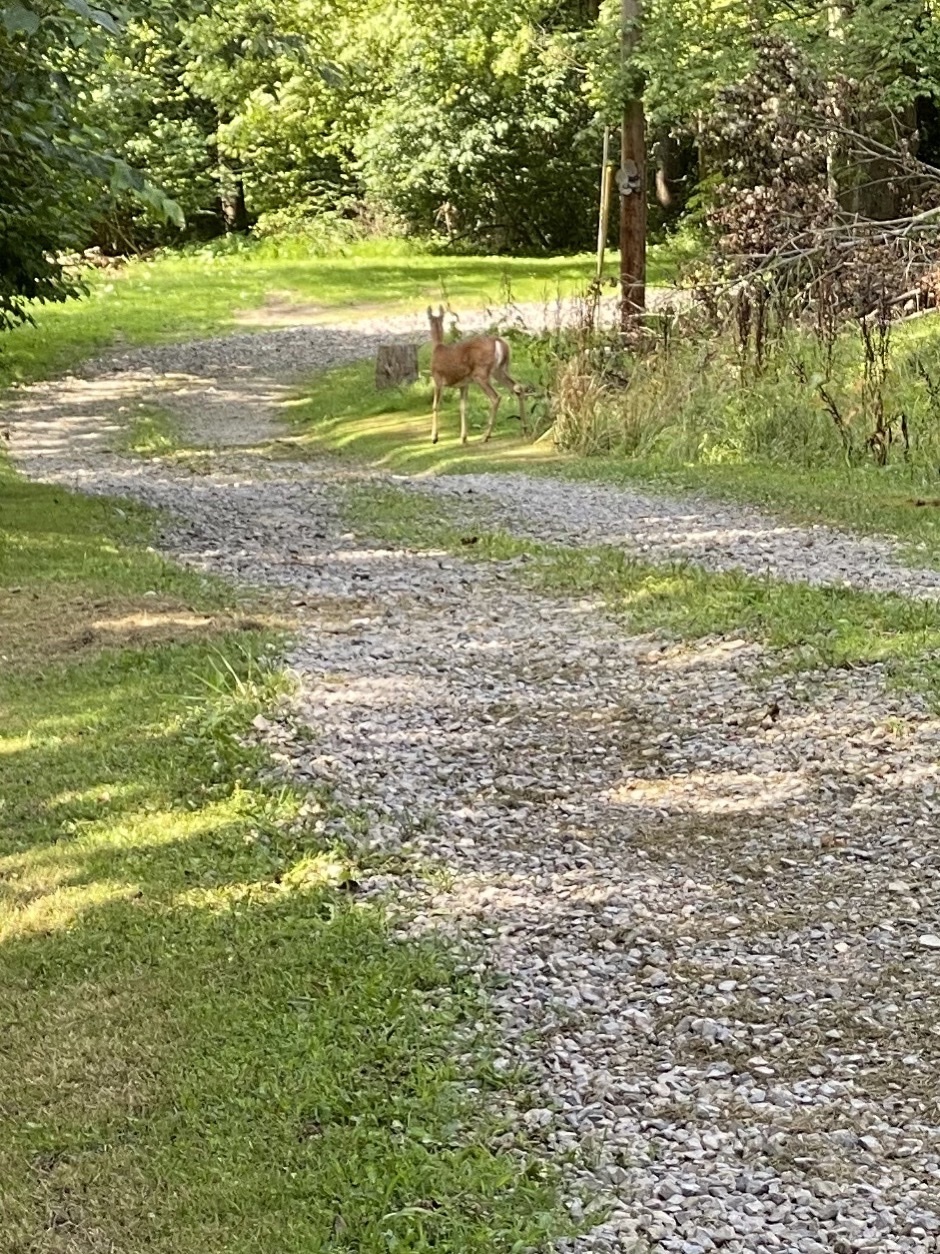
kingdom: Animalia
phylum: Chordata
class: Mammalia
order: Artiodactyla
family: Cervidae
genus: Odocoileus
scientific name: Odocoileus virginianus
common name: White-tailed deer
